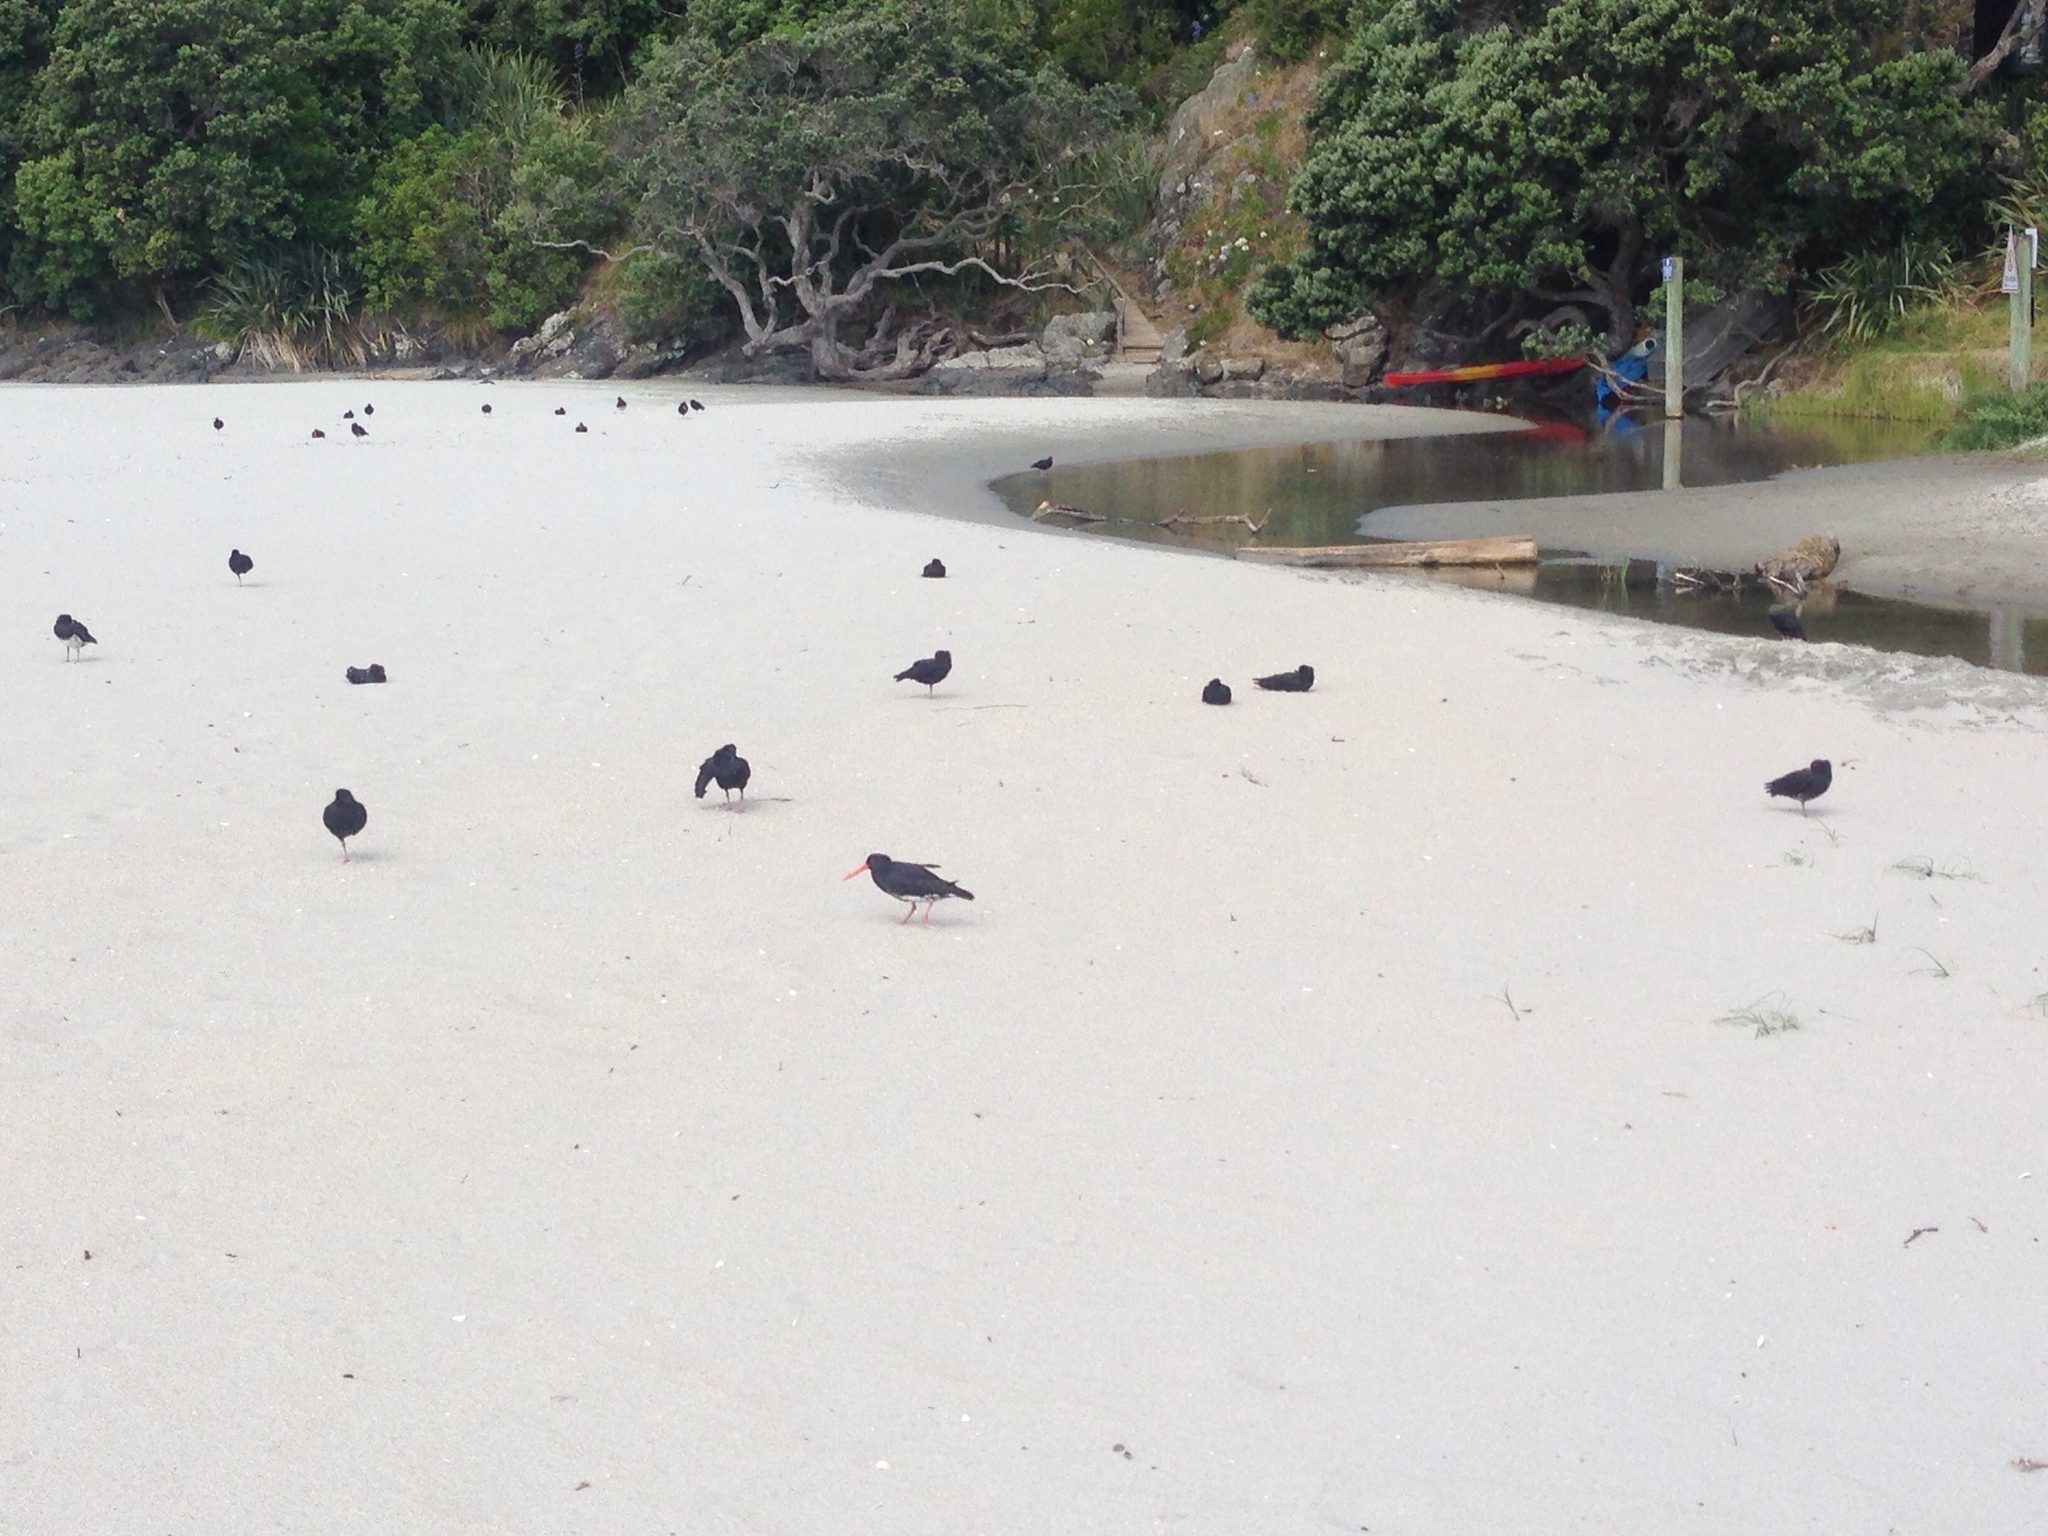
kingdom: Animalia
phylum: Chordata
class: Aves
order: Charadriiformes
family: Haematopodidae
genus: Haematopus
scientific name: Haematopus unicolor
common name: Variable oystercatcher
